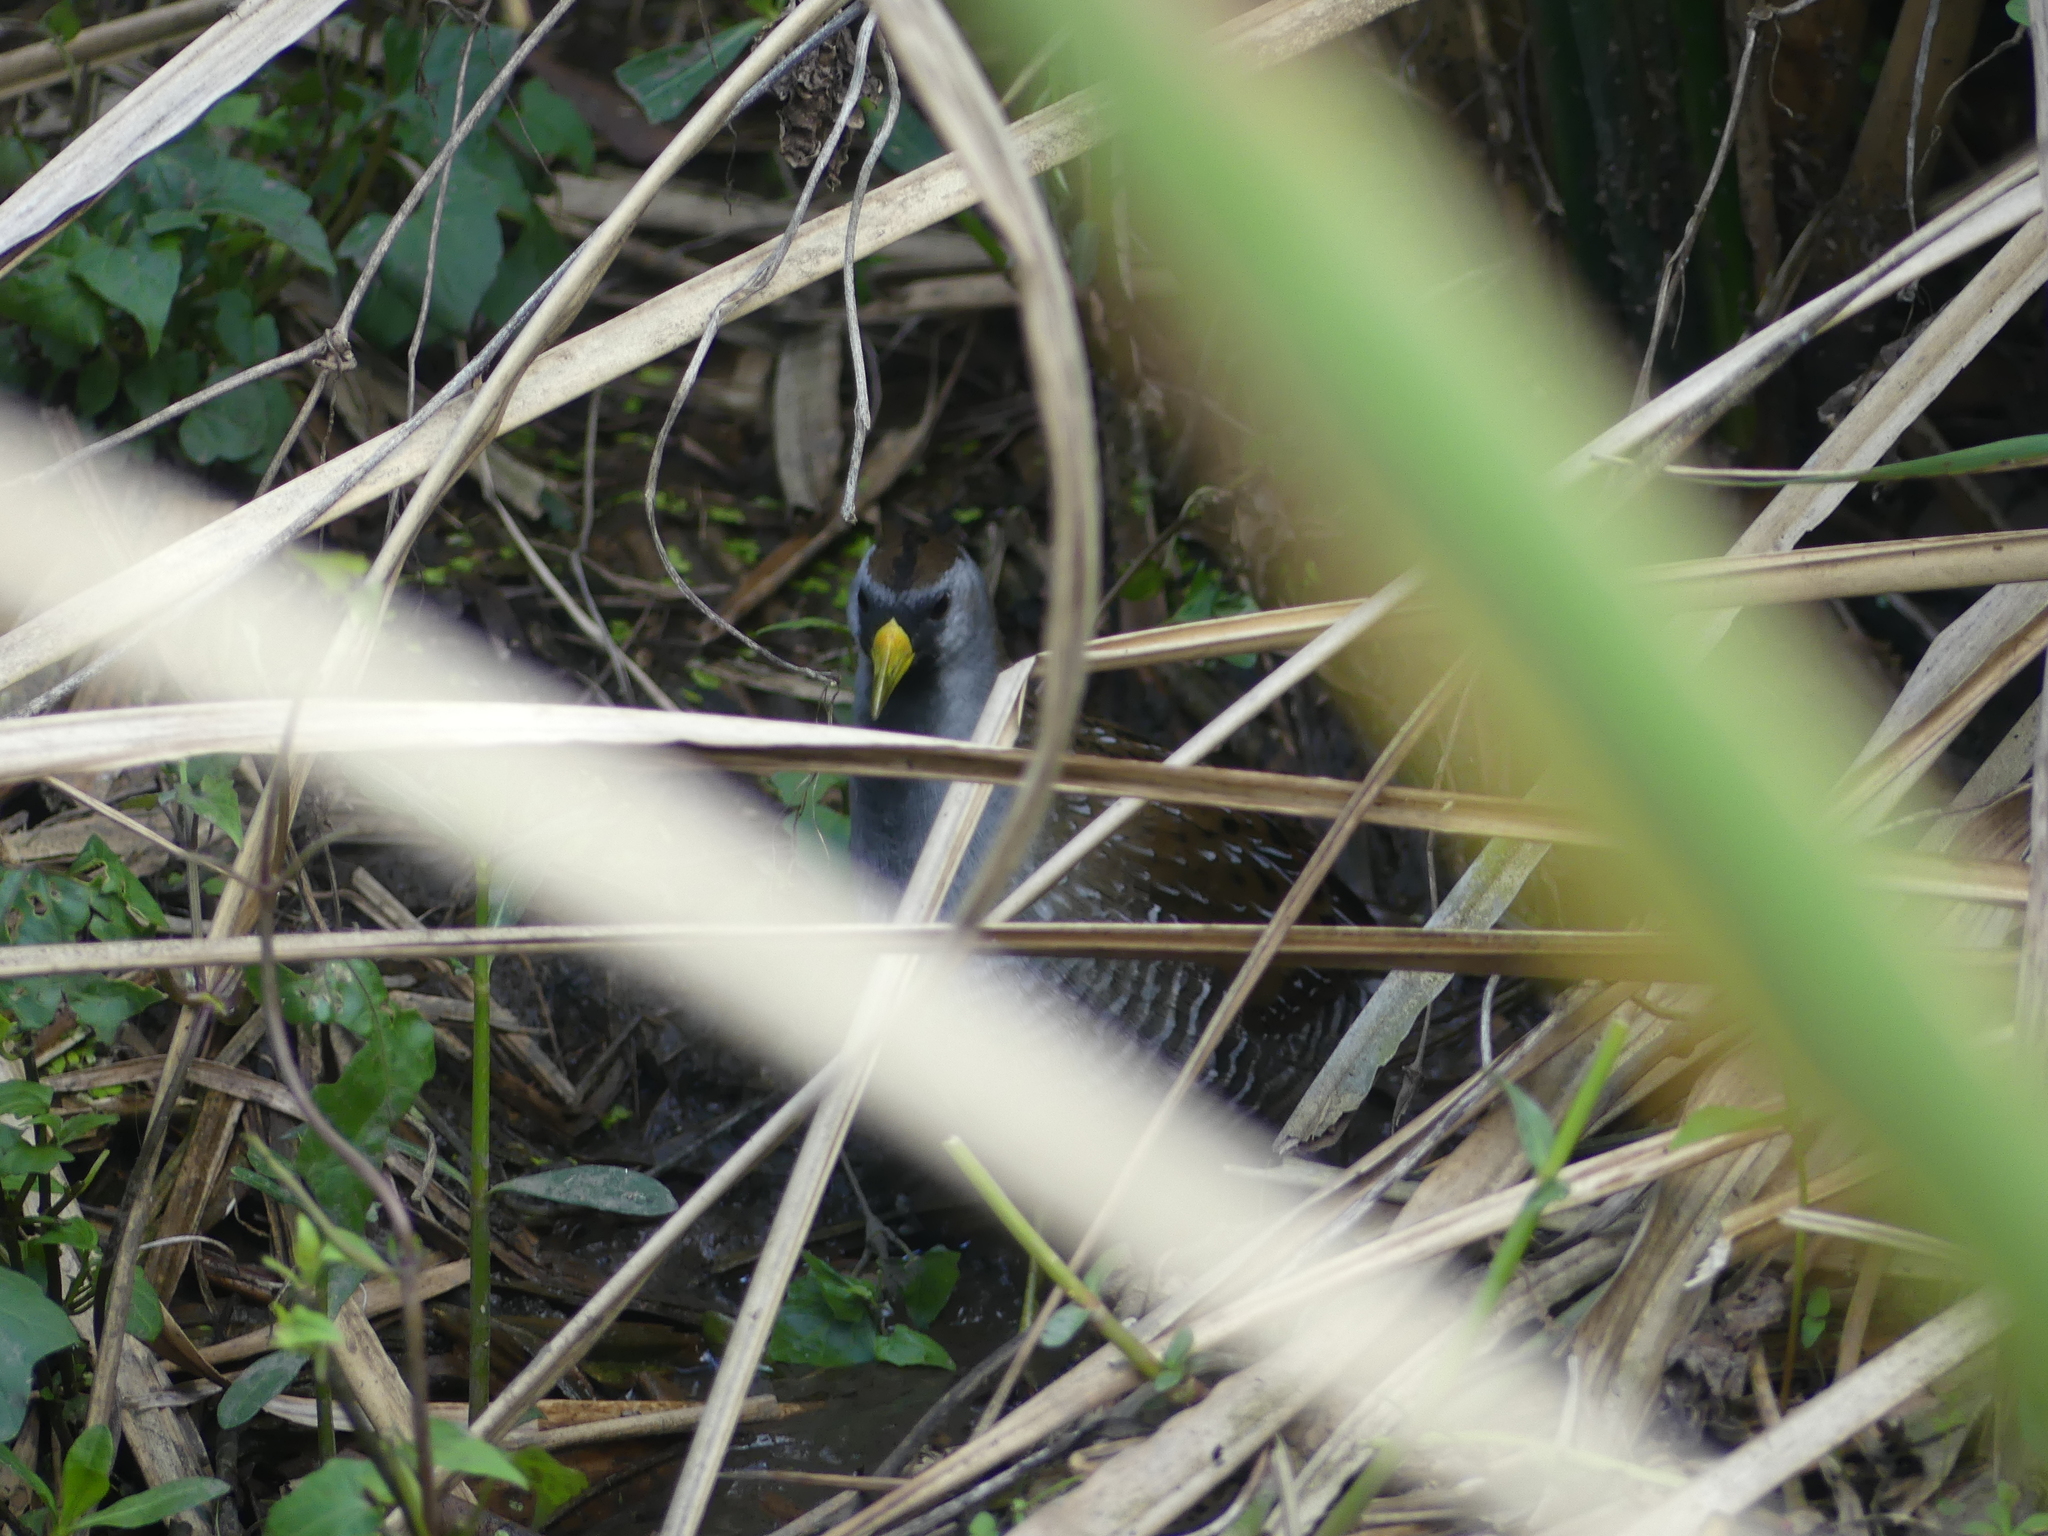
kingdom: Animalia
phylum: Chordata
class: Aves
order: Gruiformes
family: Rallidae
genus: Porzana
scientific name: Porzana carolina
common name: Sora
